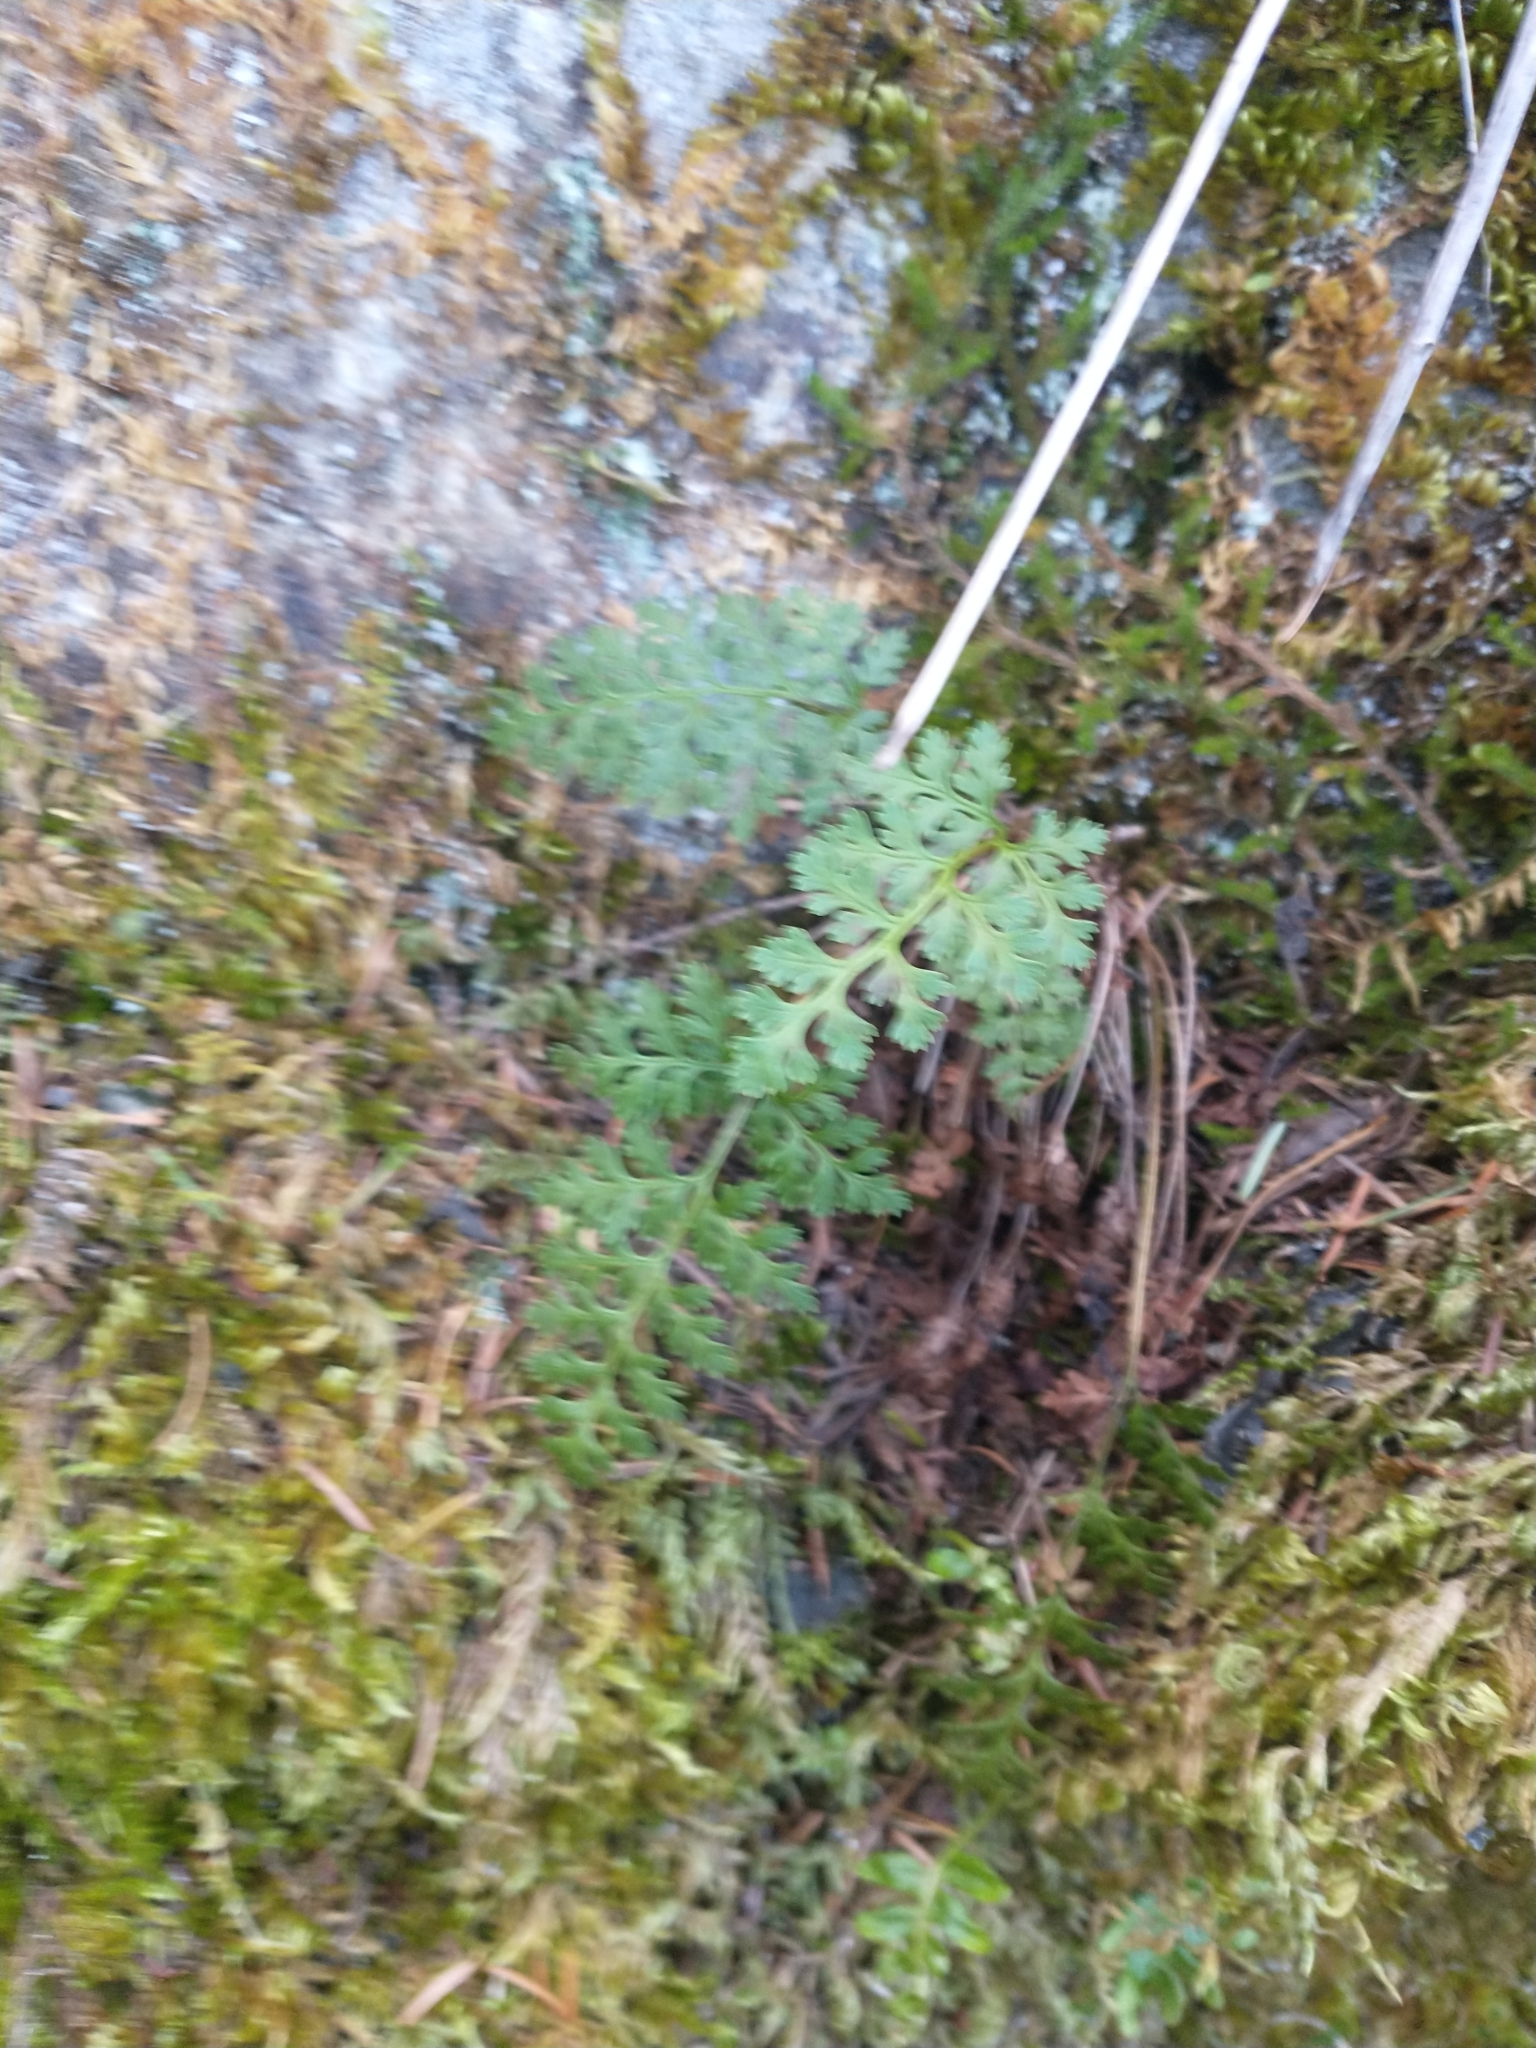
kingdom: Plantae
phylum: Tracheophyta
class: Polypodiopsida
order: Polypodiales
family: Pteridaceae
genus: Cryptogramma
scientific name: Cryptogramma acrostichoides
